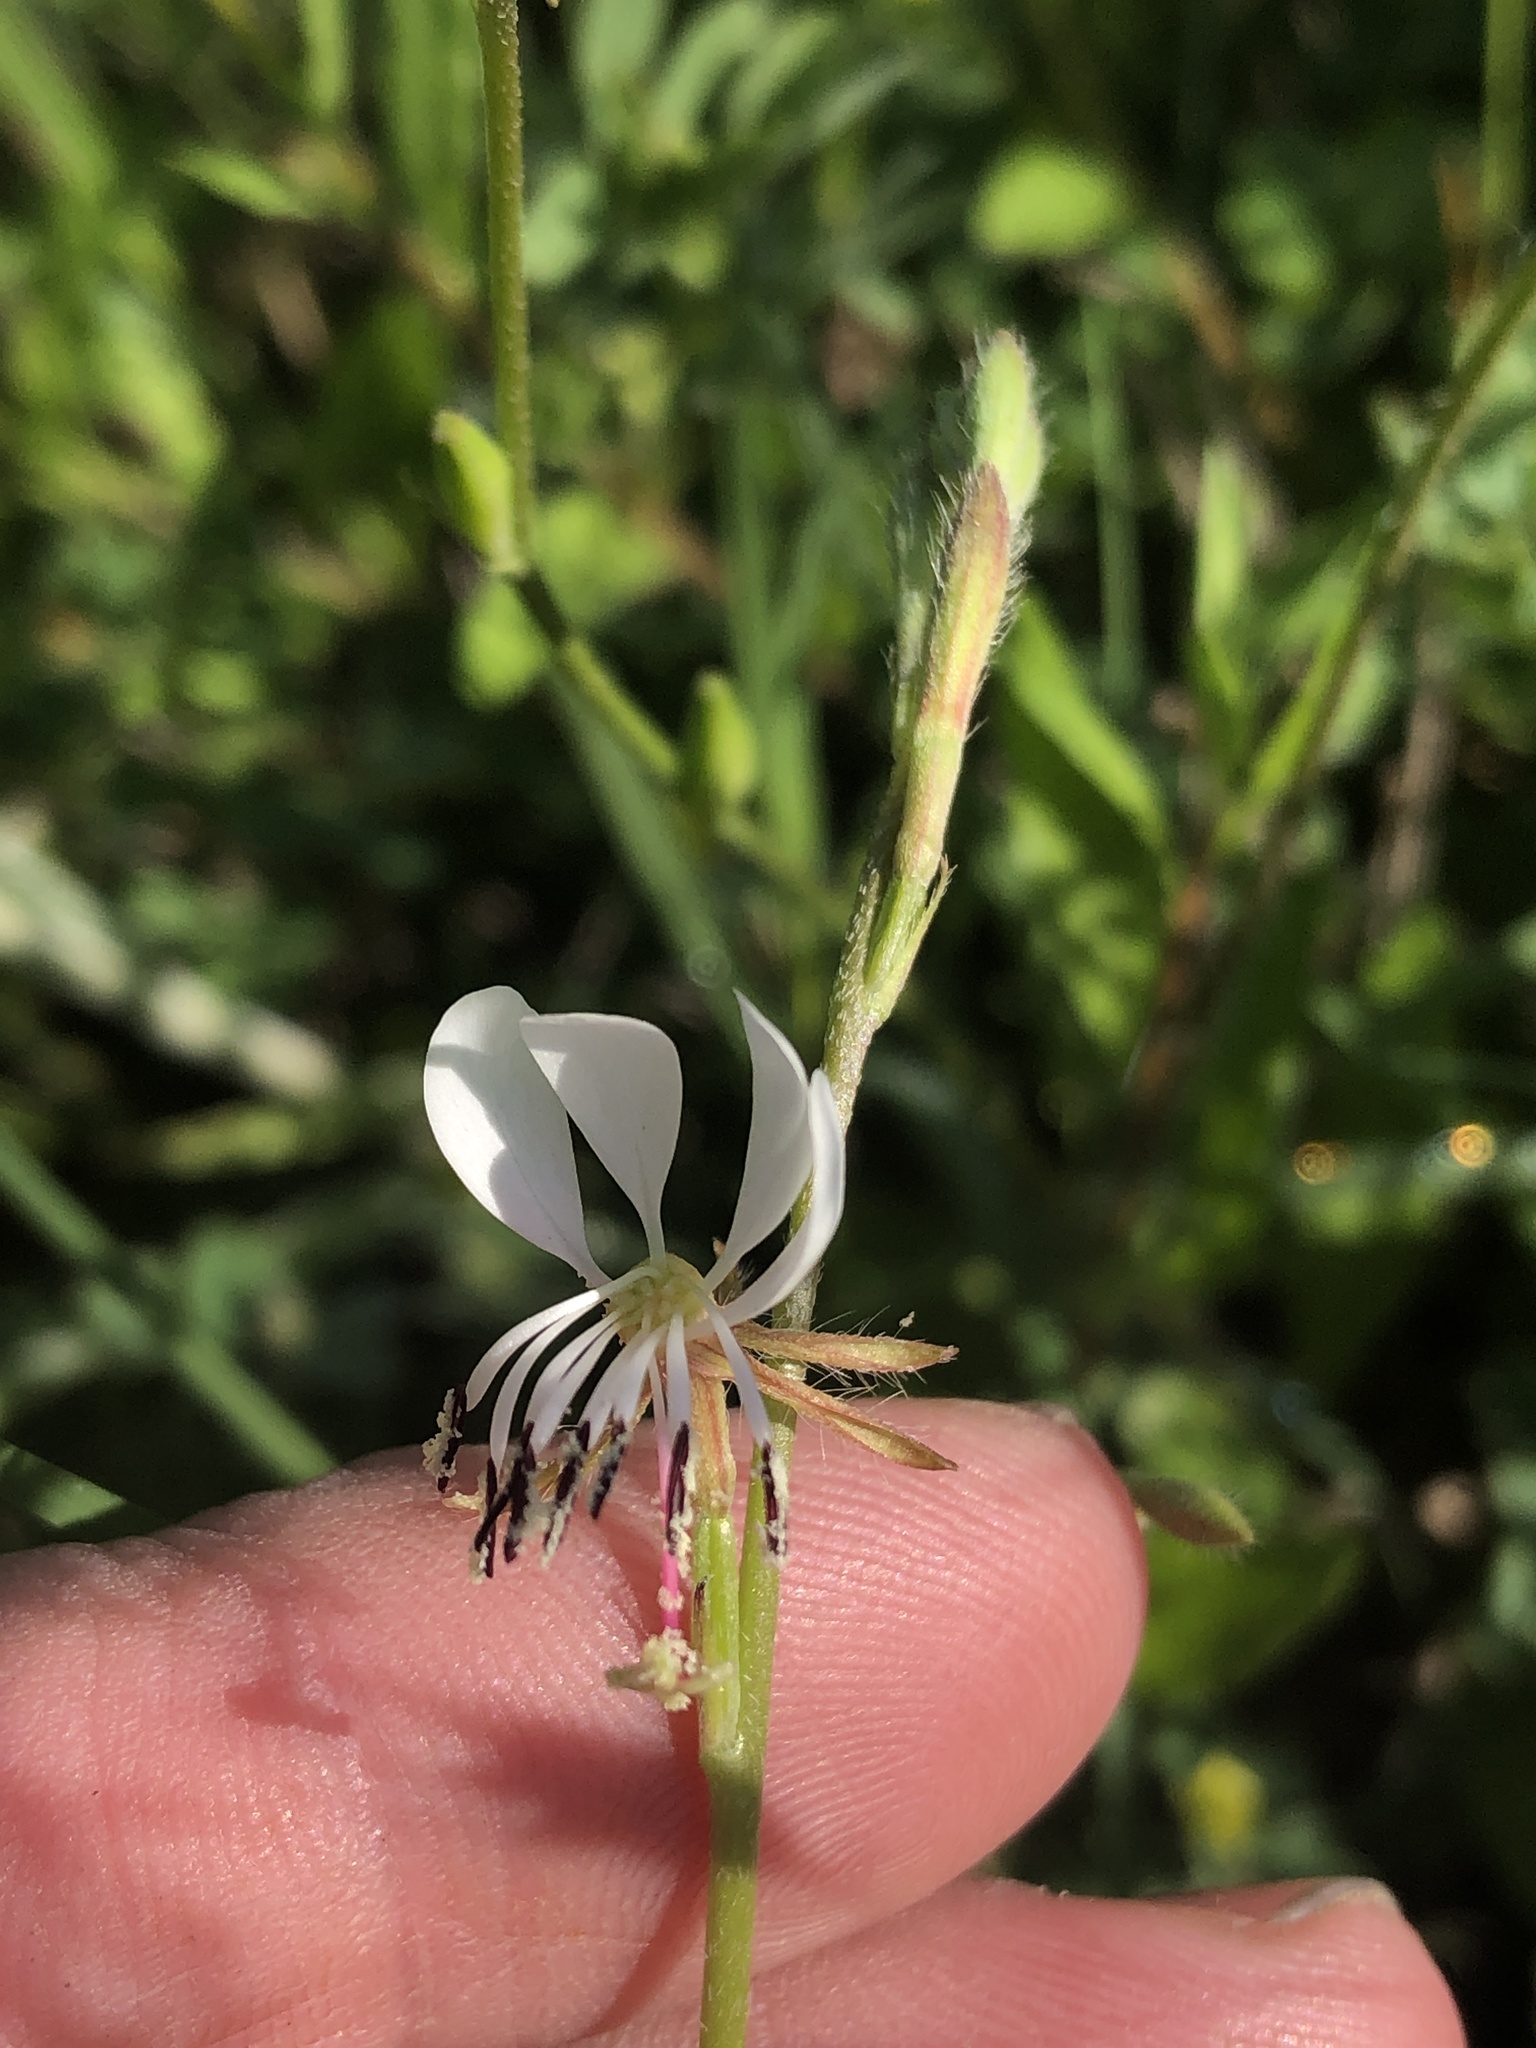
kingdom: Plantae
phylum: Tracheophyta
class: Magnoliopsida
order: Myrtales
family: Onagraceae
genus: Oenothera
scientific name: Oenothera suffulta
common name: Kisses
